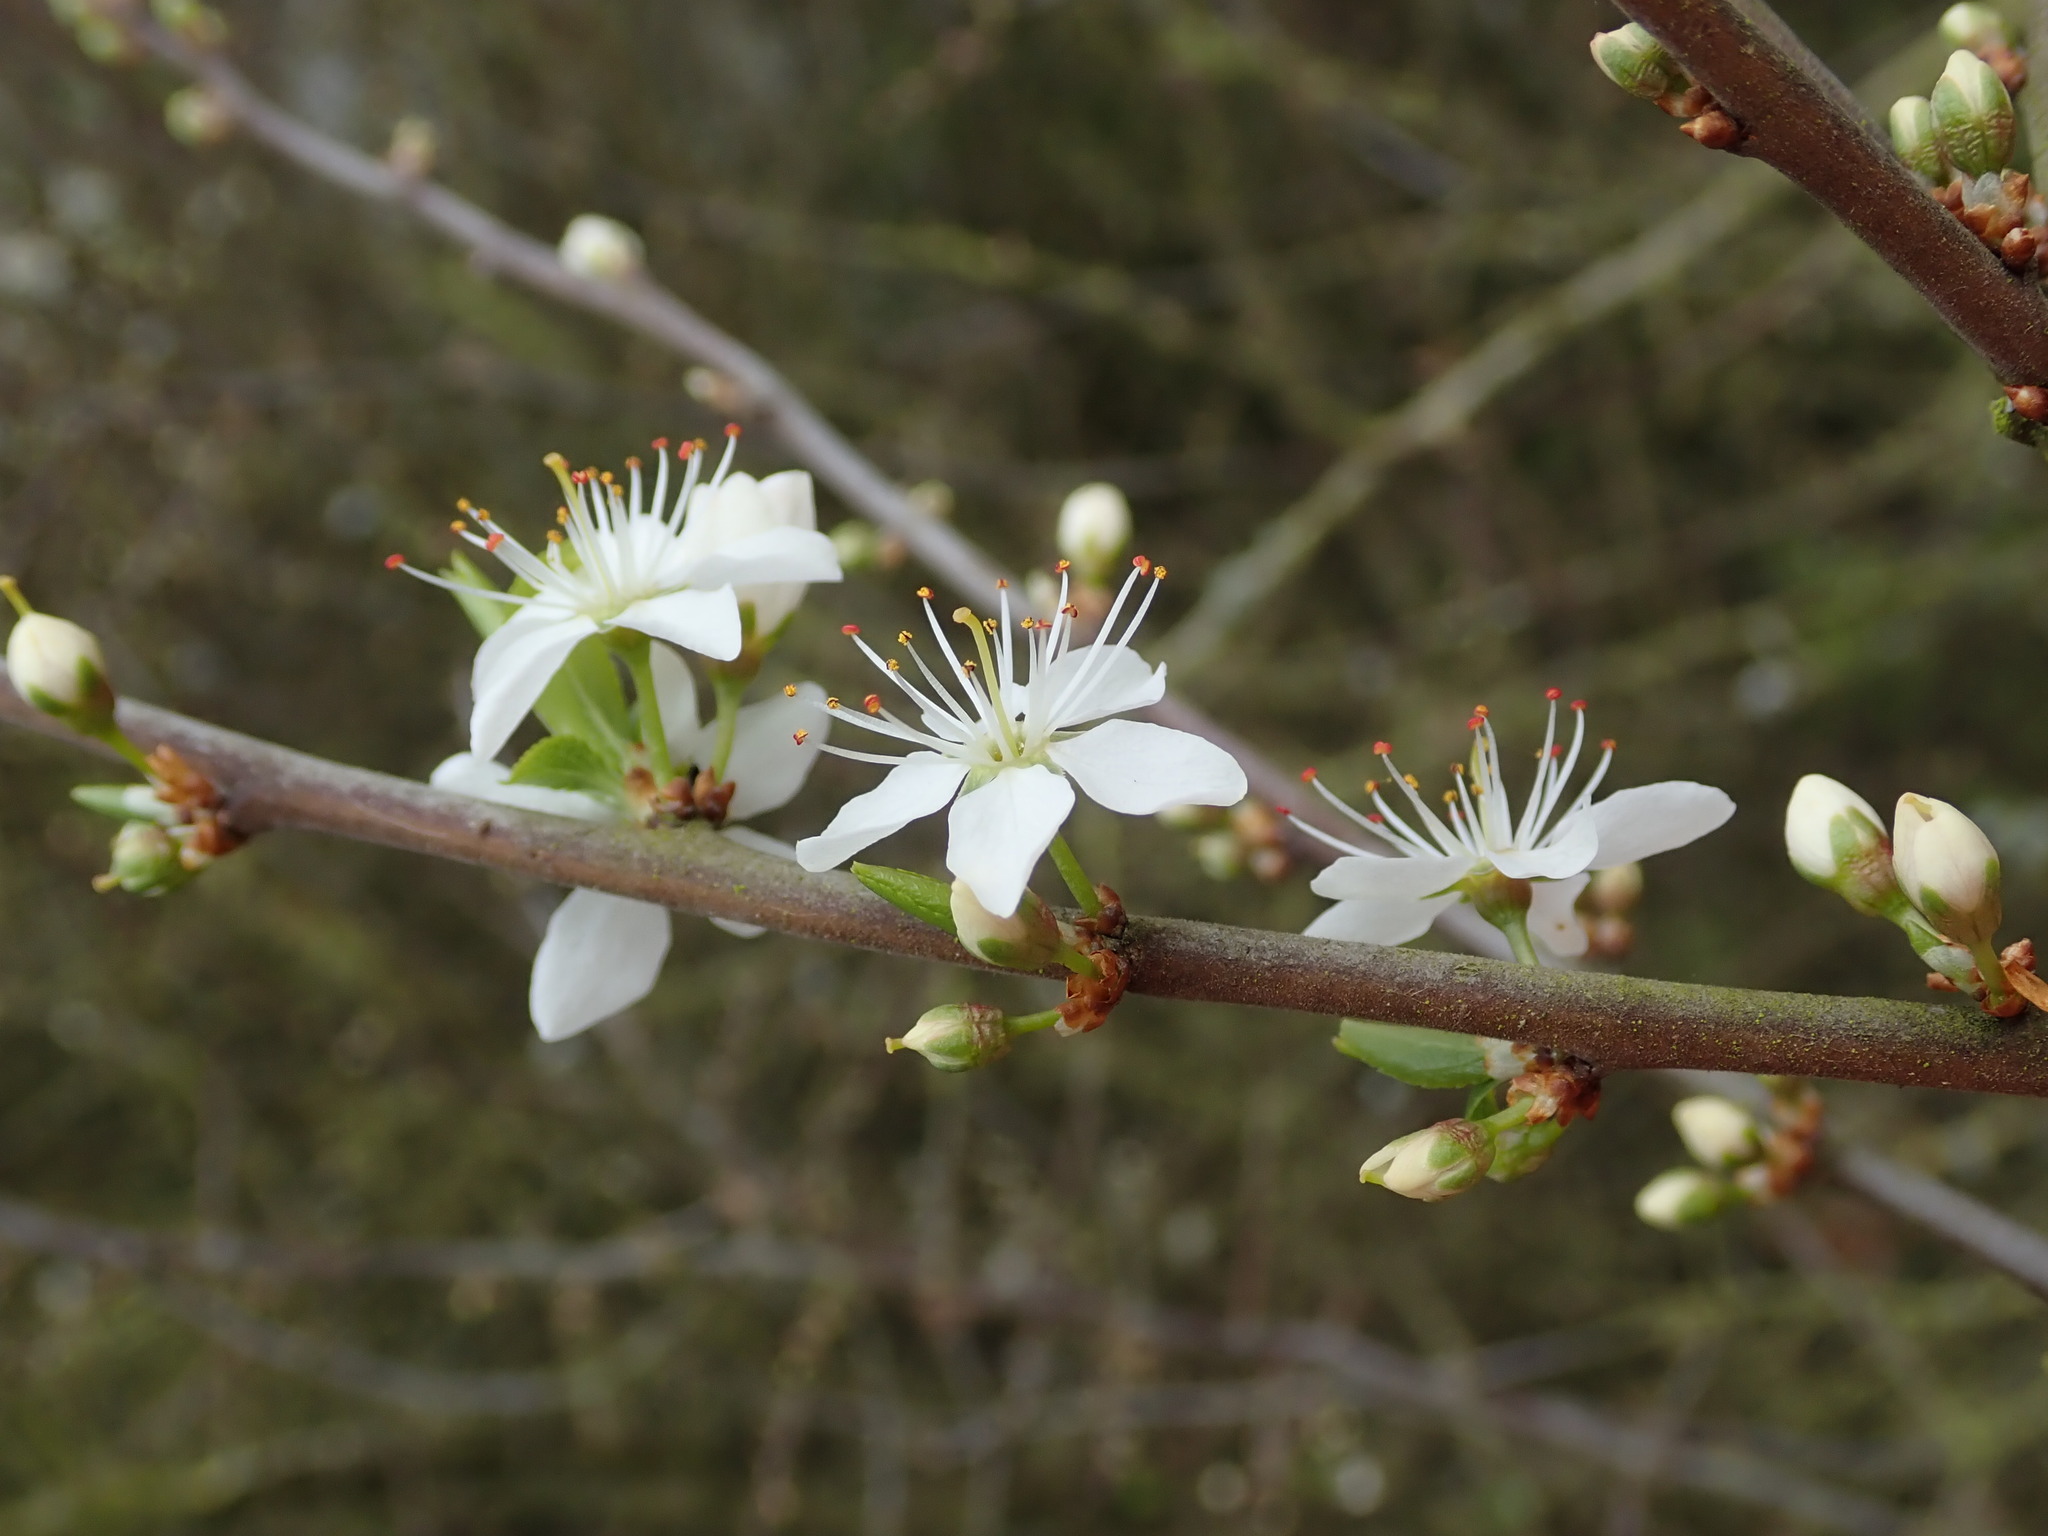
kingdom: Plantae
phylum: Tracheophyta
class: Magnoliopsida
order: Rosales
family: Rosaceae
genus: Prunus
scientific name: Prunus spinosa
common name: Blackthorn
